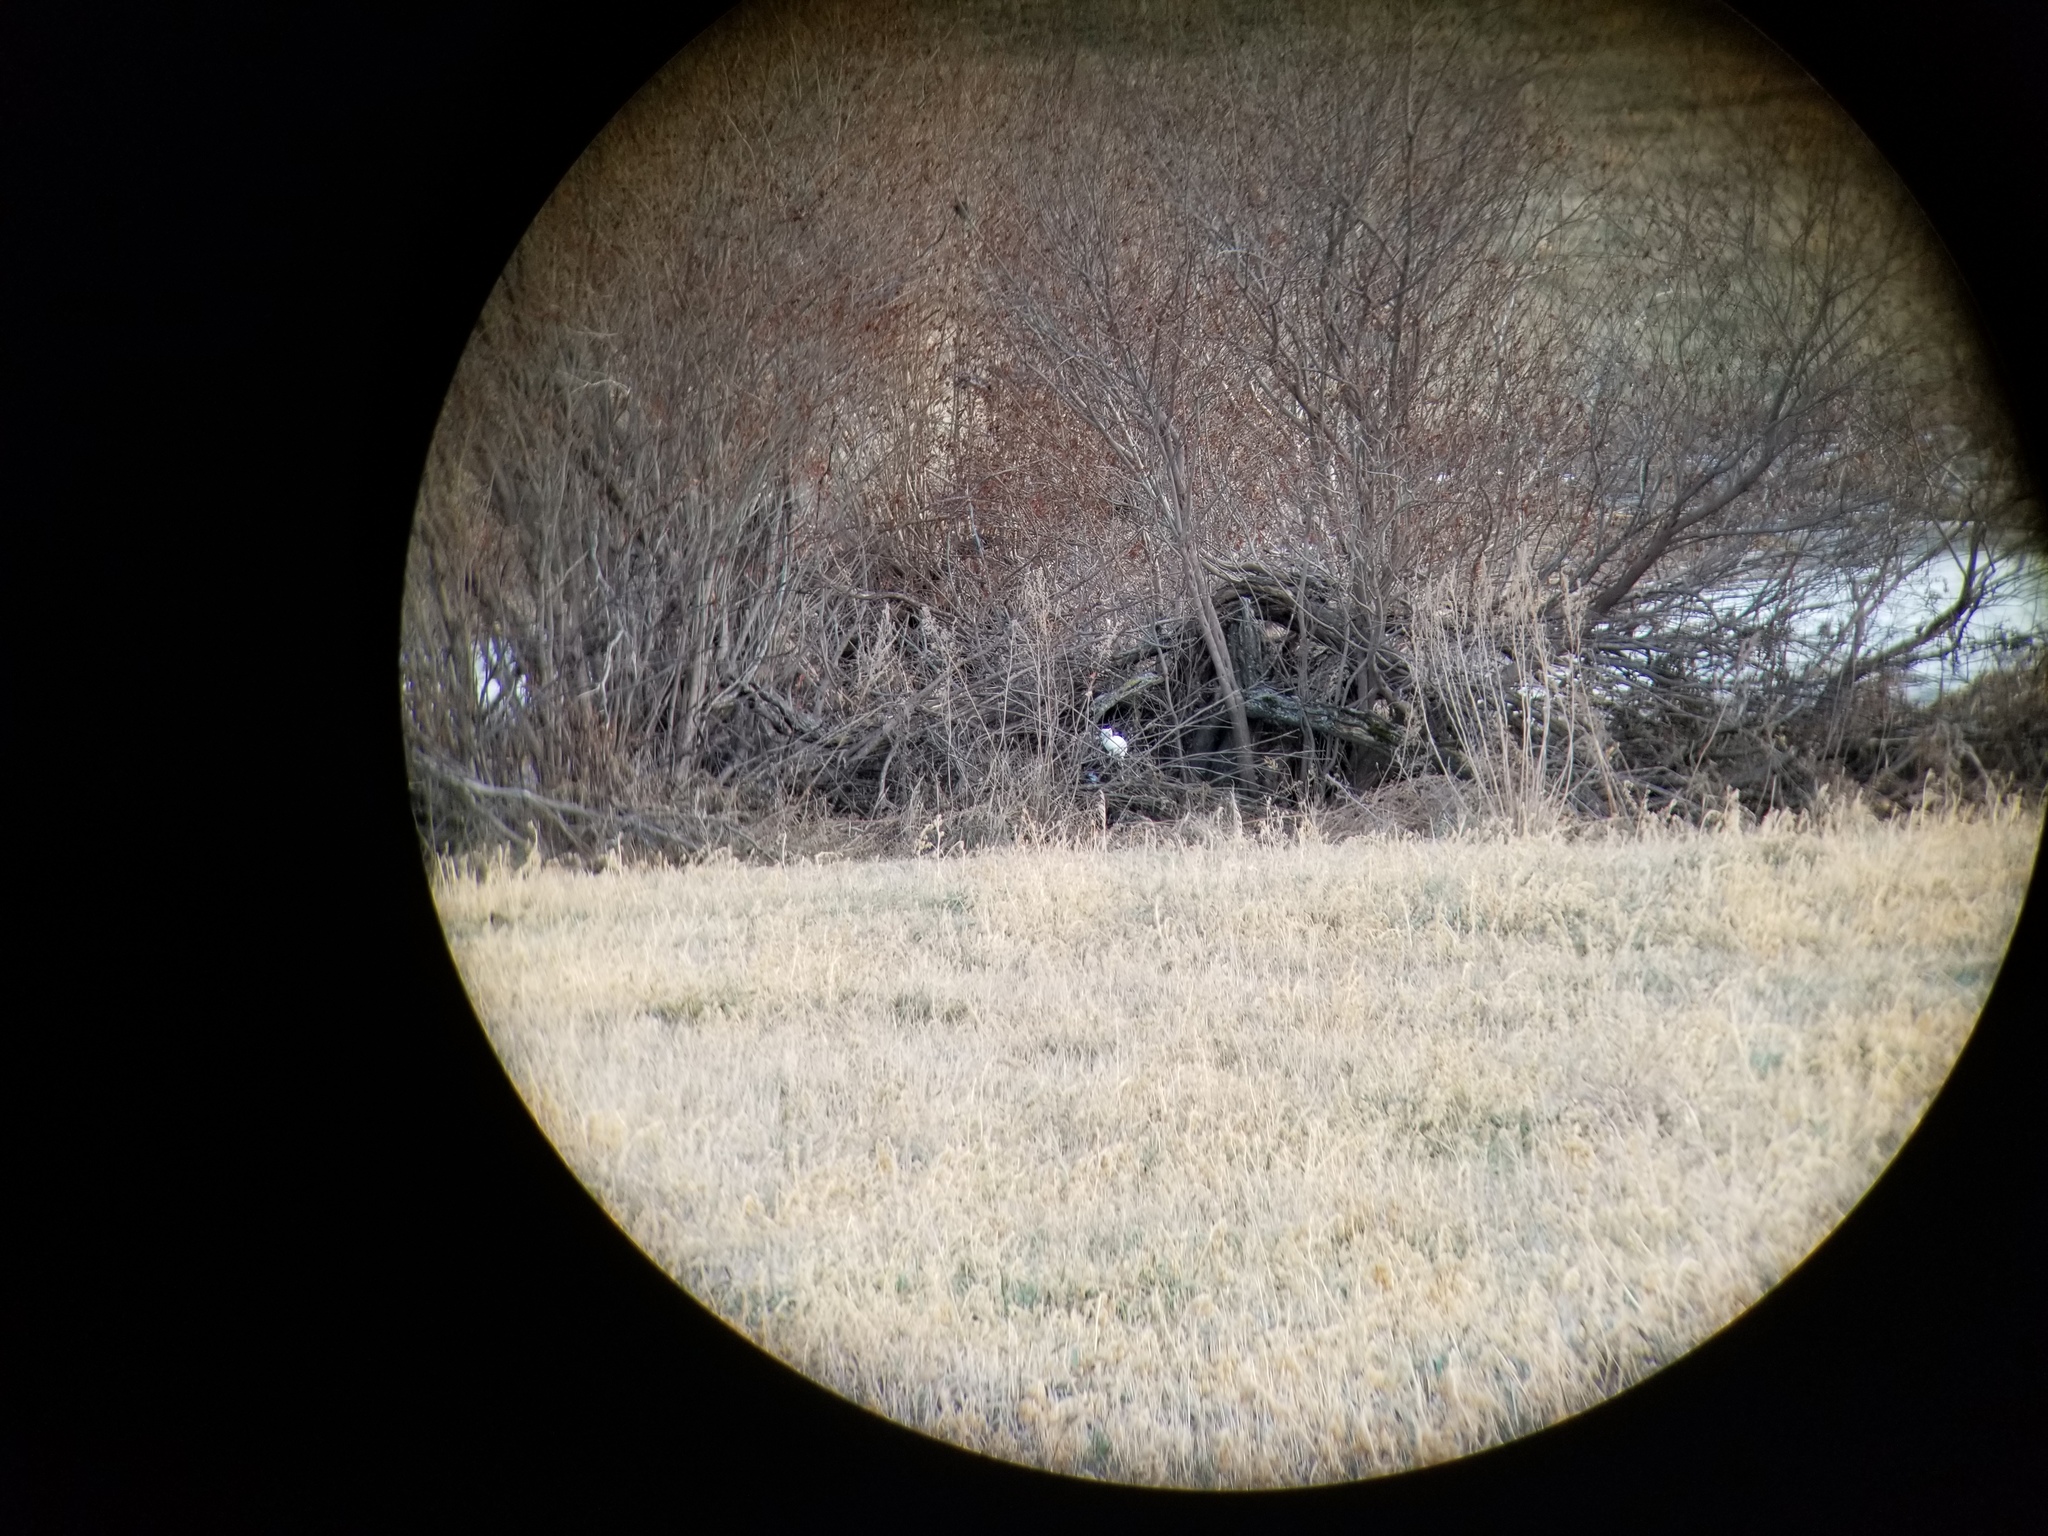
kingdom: Animalia
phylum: Chordata
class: Mammalia
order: Carnivora
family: Mustelidae
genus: Mustela
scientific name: Mustela
